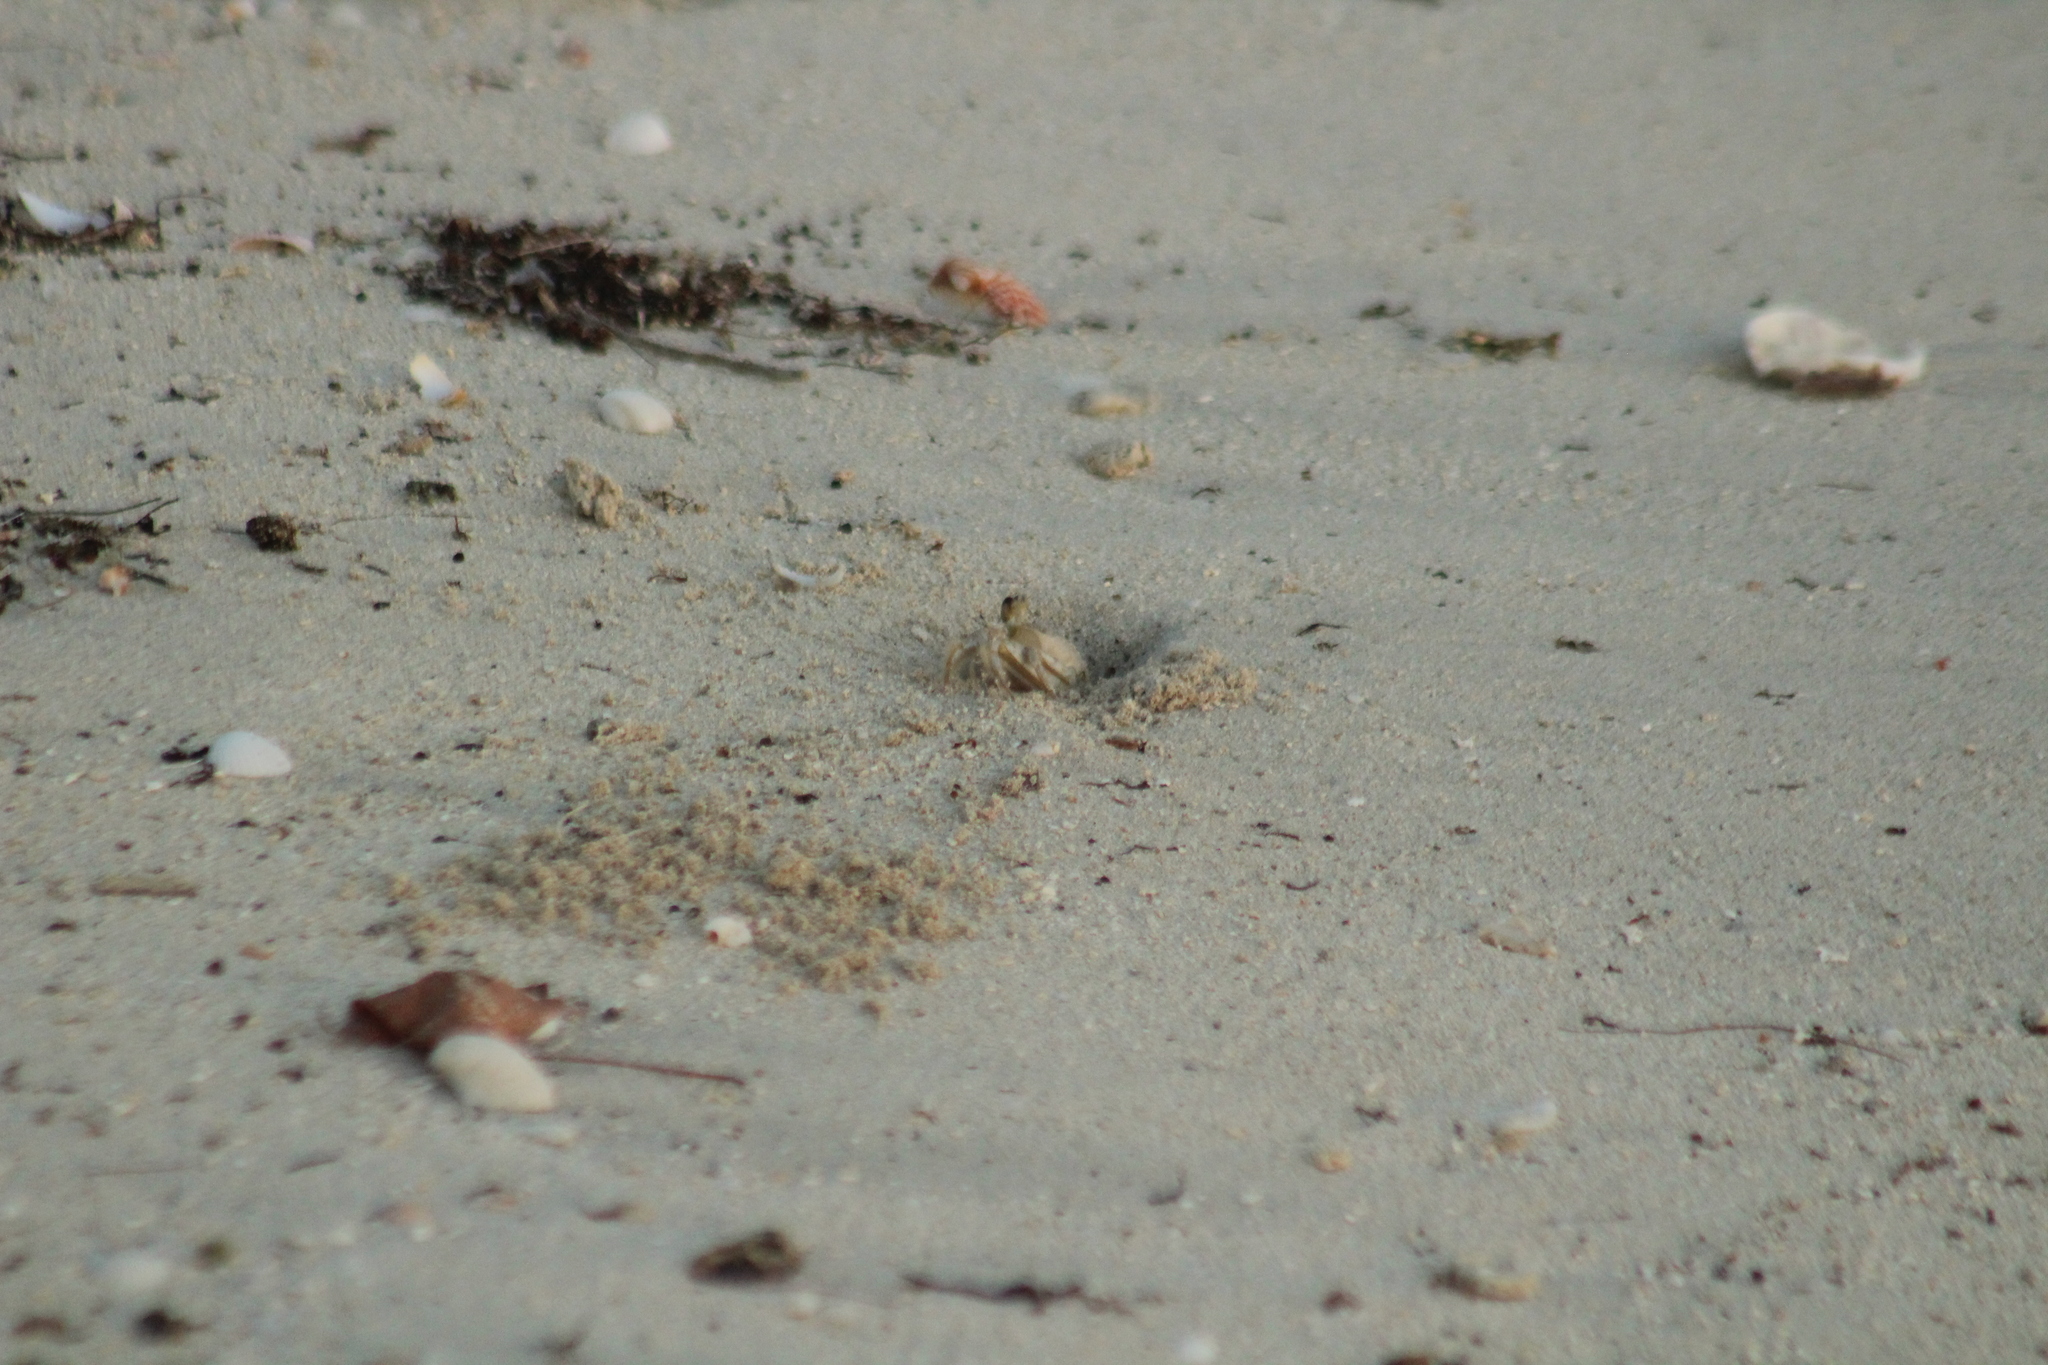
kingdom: Animalia
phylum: Arthropoda
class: Malacostraca
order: Decapoda
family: Ocypodidae
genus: Ocypode
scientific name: Ocypode quadrata
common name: Ghost crab
